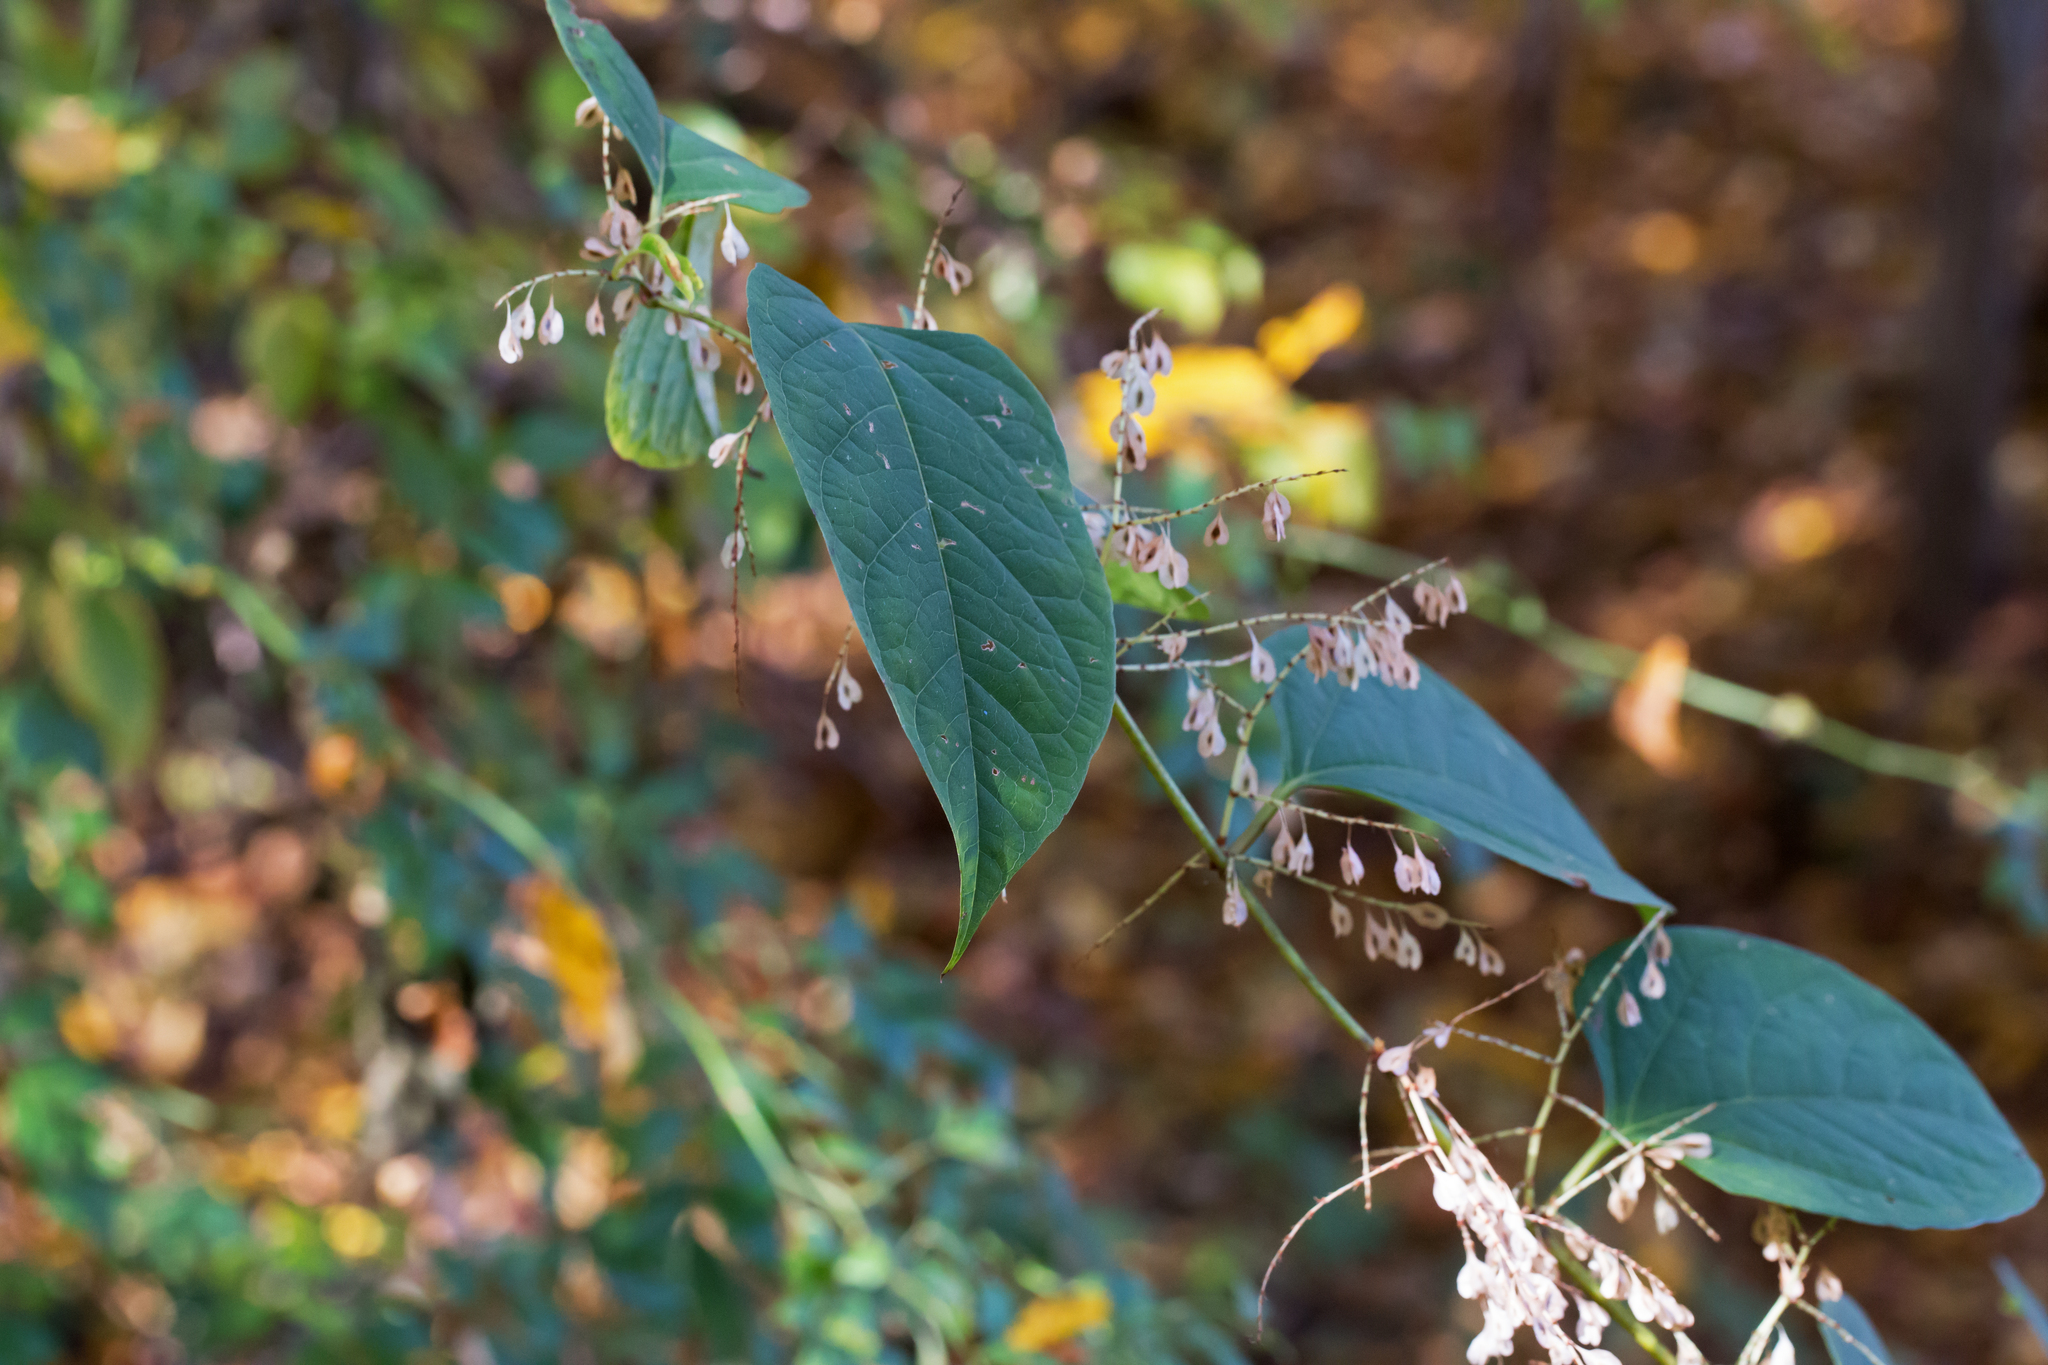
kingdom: Plantae
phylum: Tracheophyta
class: Magnoliopsida
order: Caryophyllales
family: Polygonaceae
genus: Reynoutria
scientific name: Reynoutria japonica
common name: Japanese knotweed
